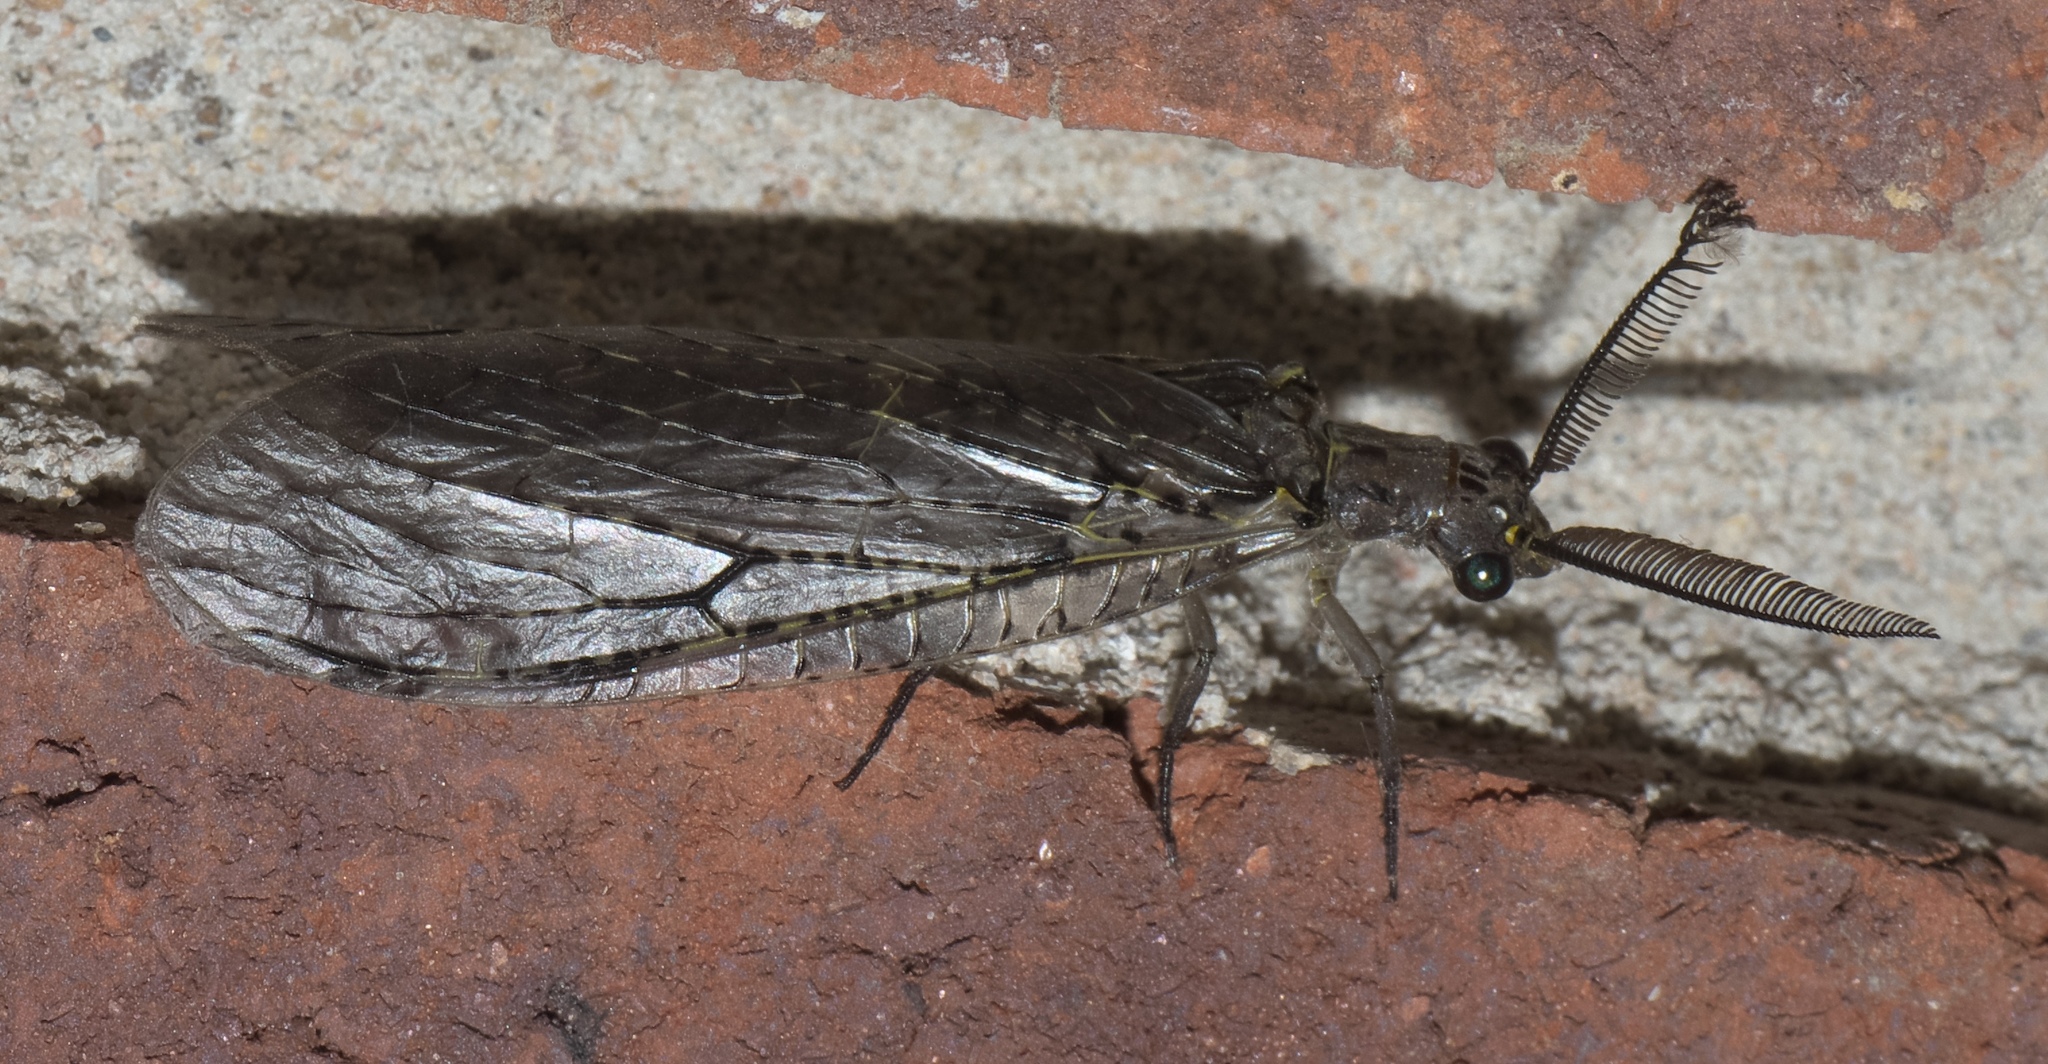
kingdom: Animalia
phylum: Arthropoda
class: Insecta
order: Megaloptera
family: Corydalidae
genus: Chauliodes
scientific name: Chauliodes rastricornis
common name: Spring fishfly
